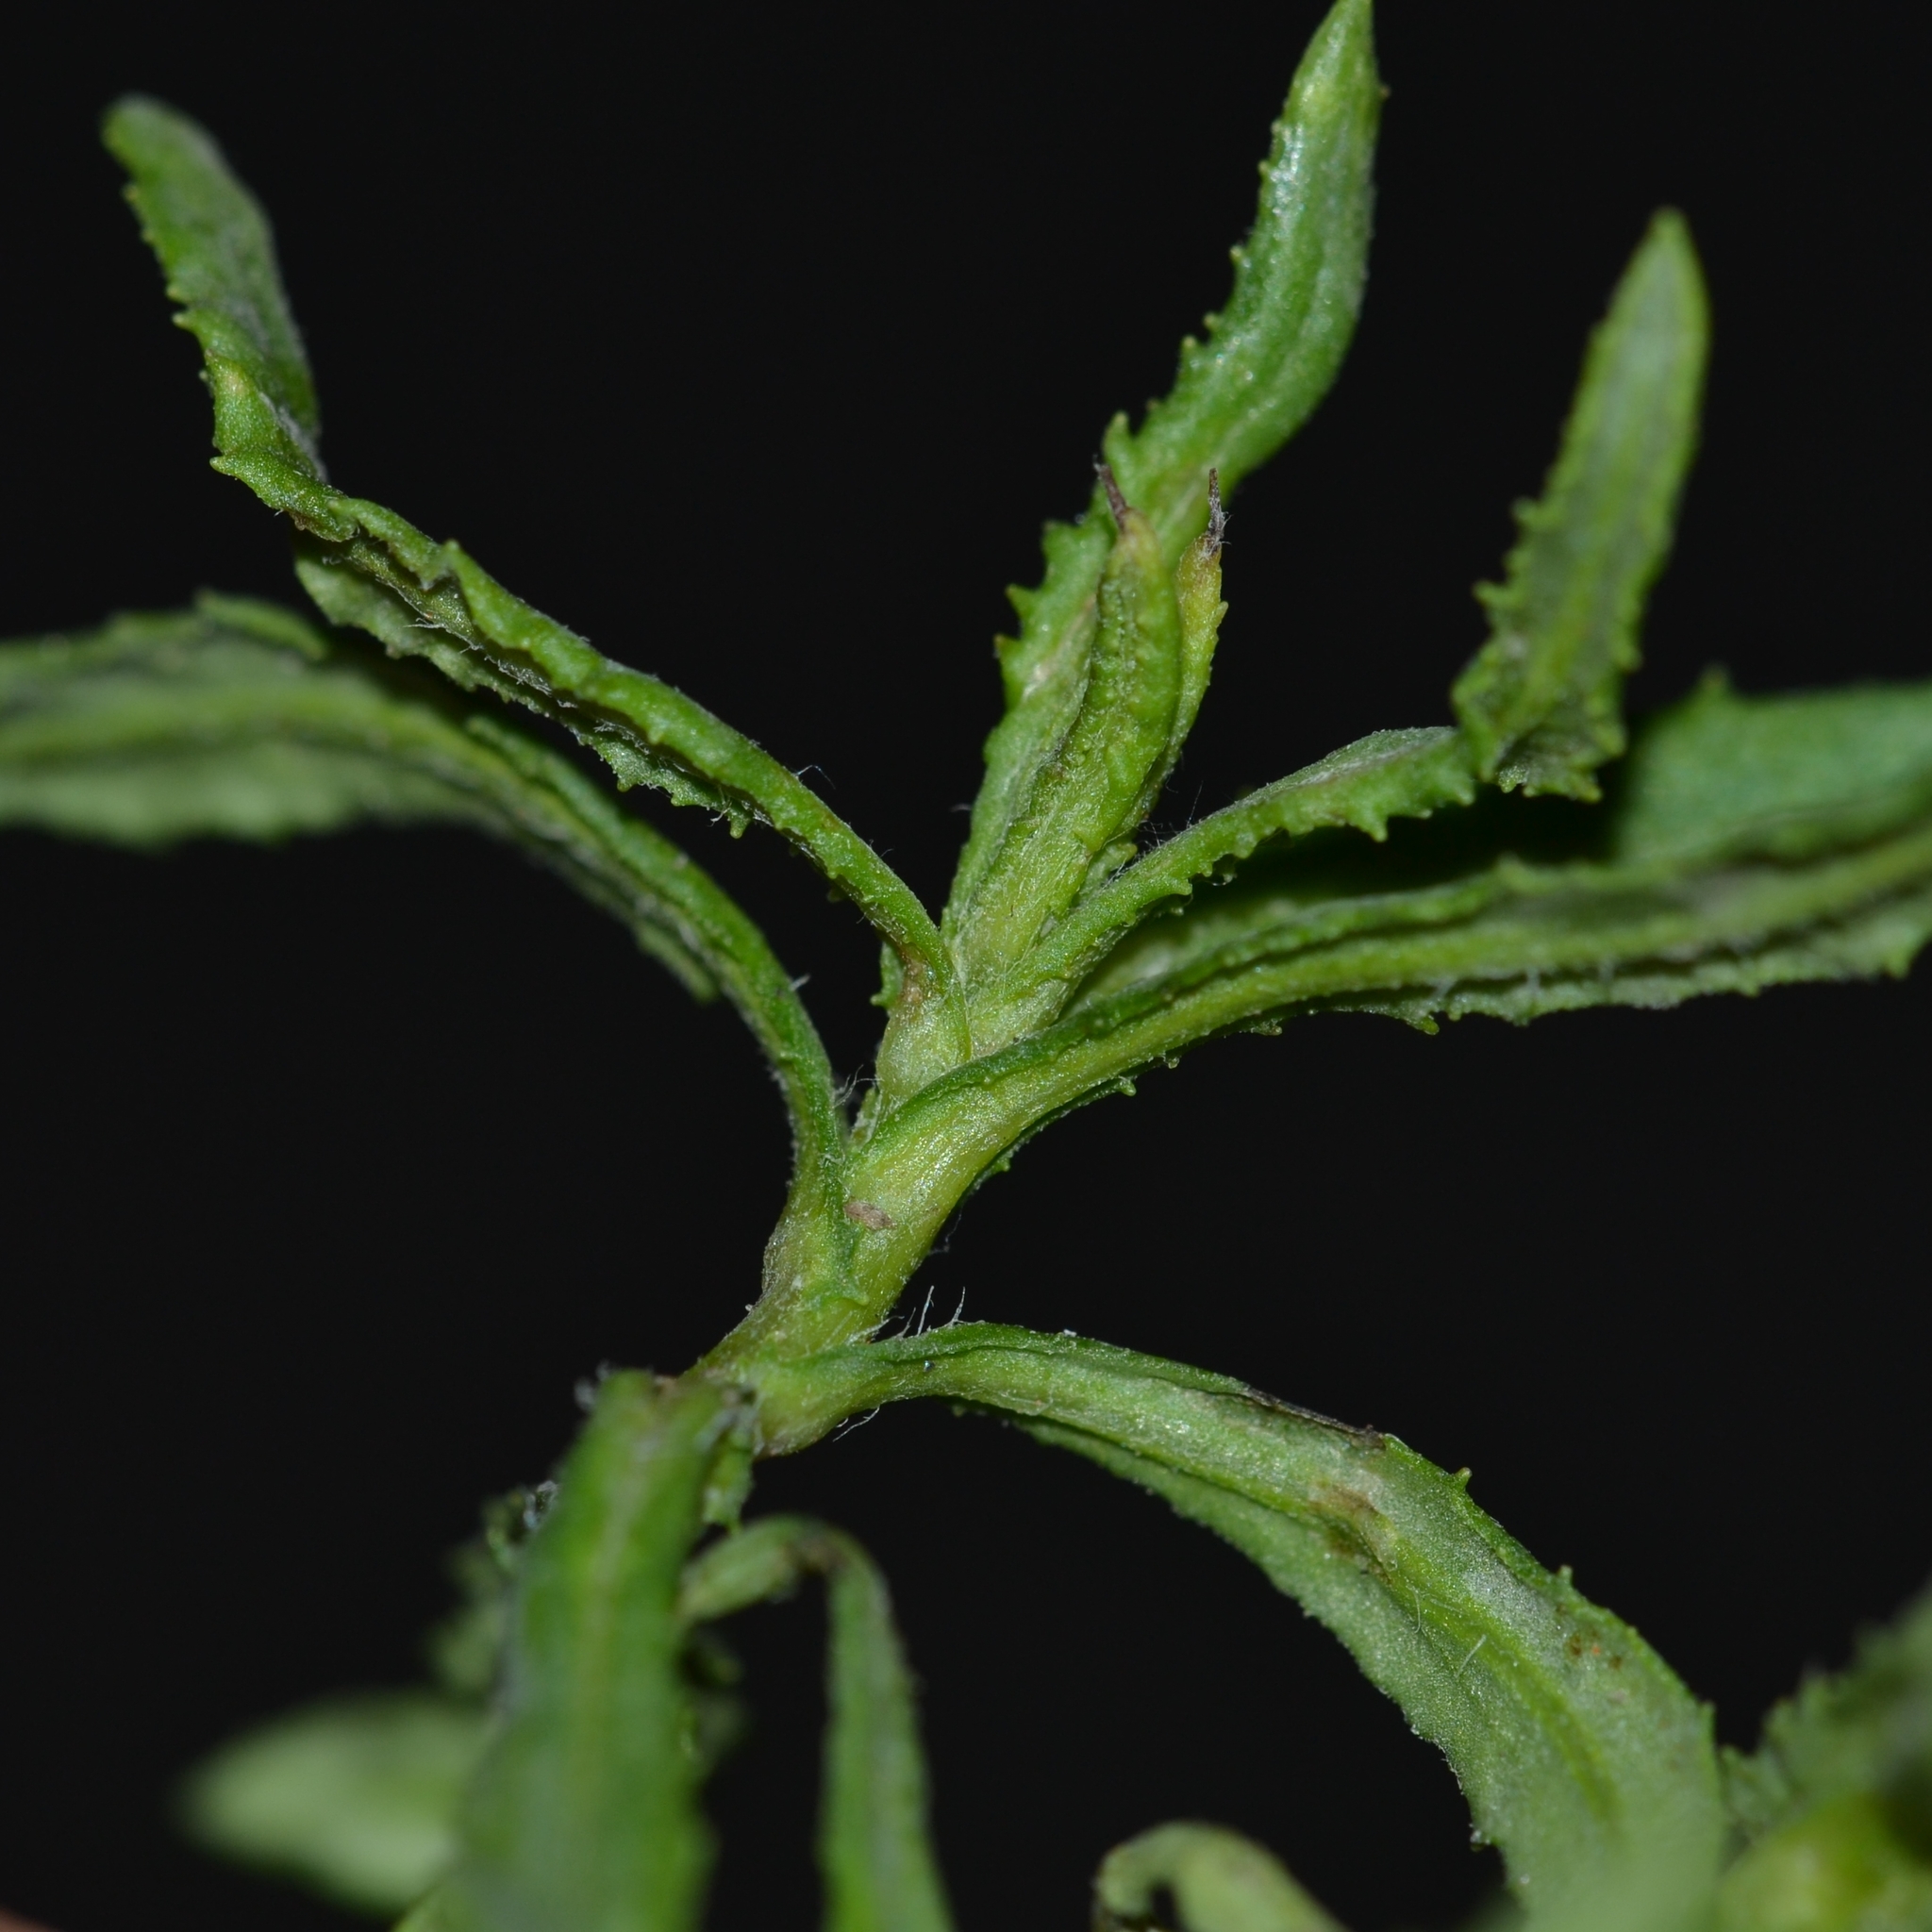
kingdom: Plantae
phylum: Tracheophyta
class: Magnoliopsida
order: Asterales
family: Asteraceae
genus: Senecio
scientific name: Senecio madagascariensis
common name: Madagascar ragwort
